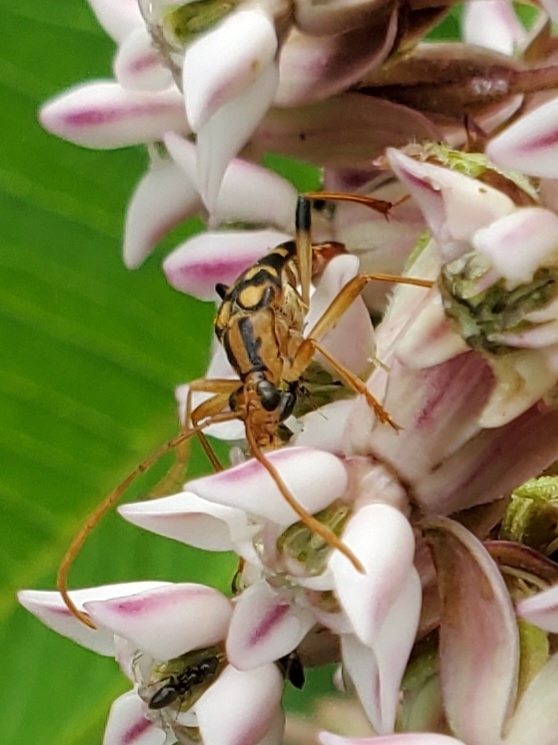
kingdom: Animalia
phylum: Arthropoda
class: Insecta
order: Coleoptera
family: Cerambycidae
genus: Strangalia
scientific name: Strangalia luteicornis
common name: Yellow-horned flower longhorn beetle
